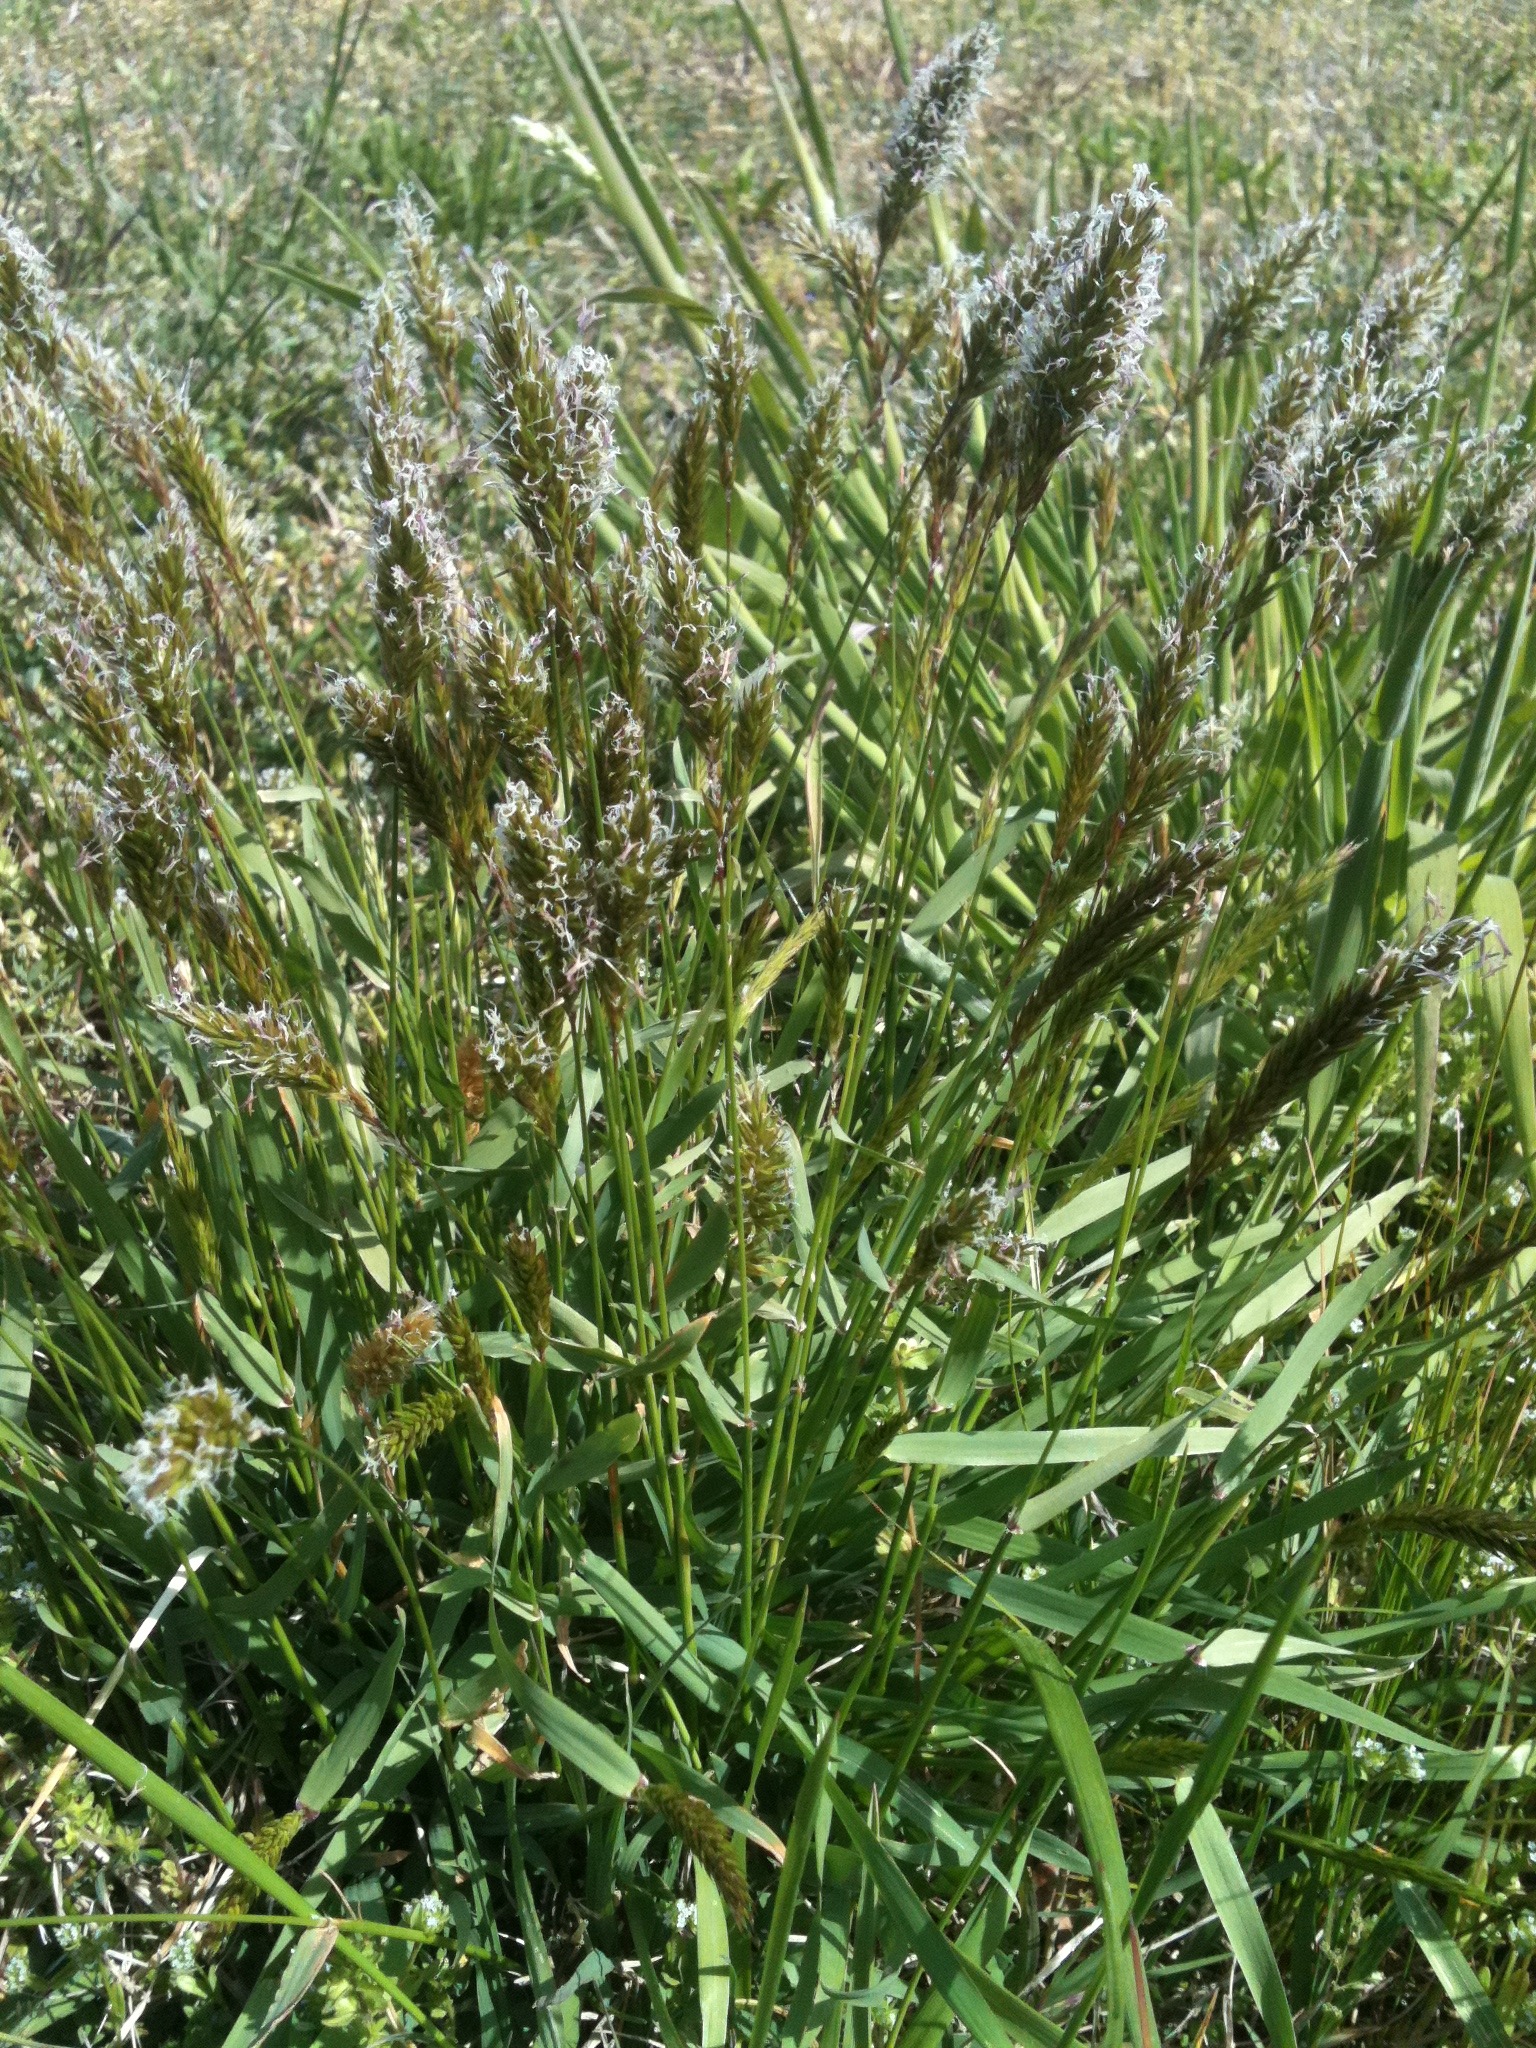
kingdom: Plantae
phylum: Tracheophyta
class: Liliopsida
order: Poales
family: Poaceae
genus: Anthoxanthum
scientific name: Anthoxanthum odoratum
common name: Sweet vernalgrass
